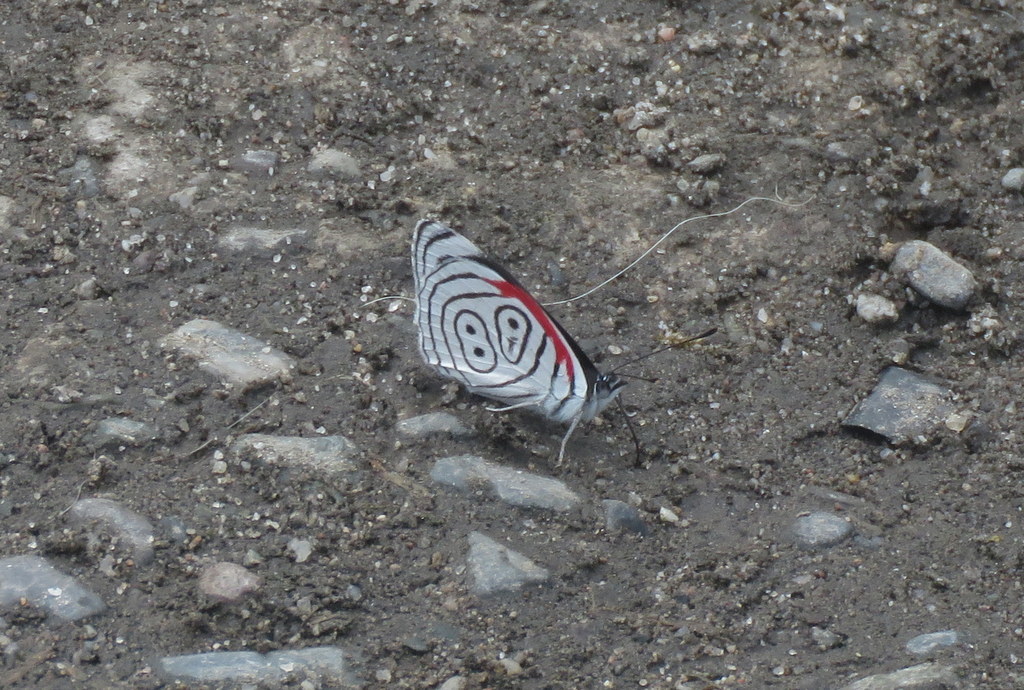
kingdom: Animalia
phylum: Arthropoda
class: Insecta
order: Lepidoptera
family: Nymphalidae
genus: Diaethria
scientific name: Diaethria neglecta
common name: Neglected eighty-eight
